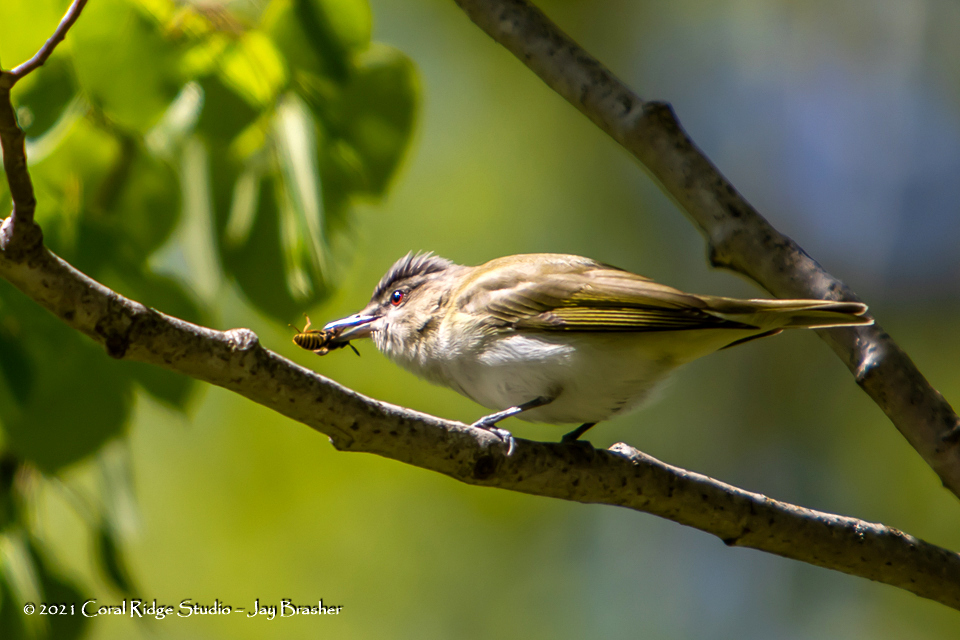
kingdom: Animalia
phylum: Chordata
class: Aves
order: Passeriformes
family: Vireonidae
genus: Vireo
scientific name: Vireo olivaceus
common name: Red-eyed vireo
